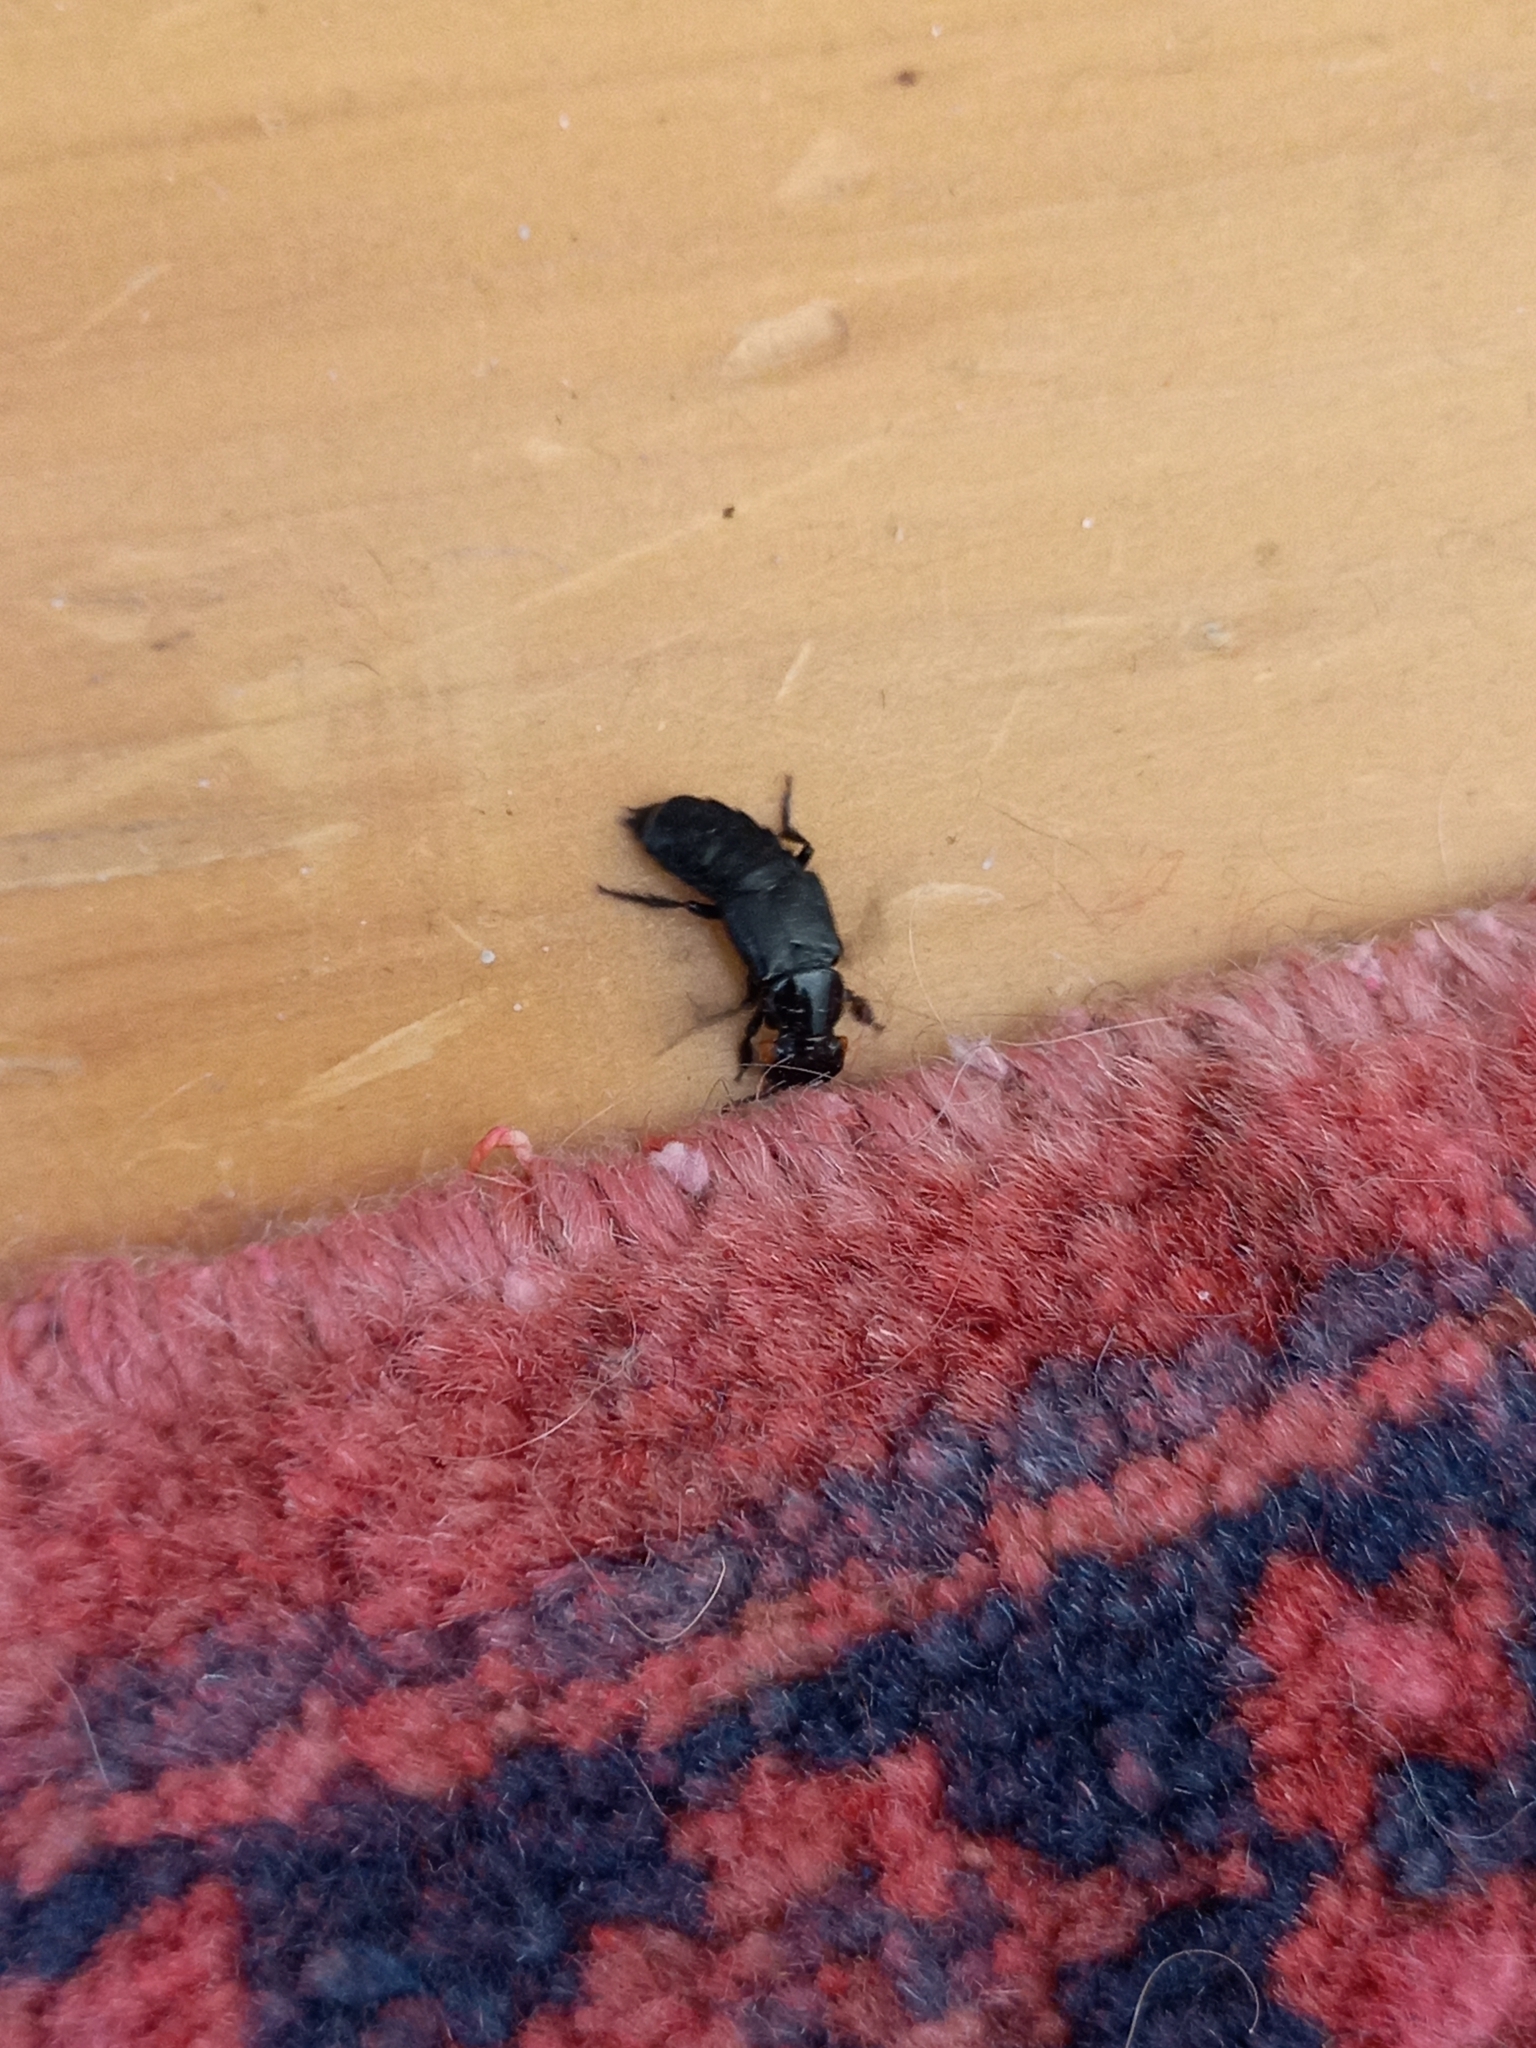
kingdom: Animalia
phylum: Arthropoda
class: Insecta
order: Coleoptera
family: Staphylinidae
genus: Creophilus
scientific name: Creophilus oculatus
